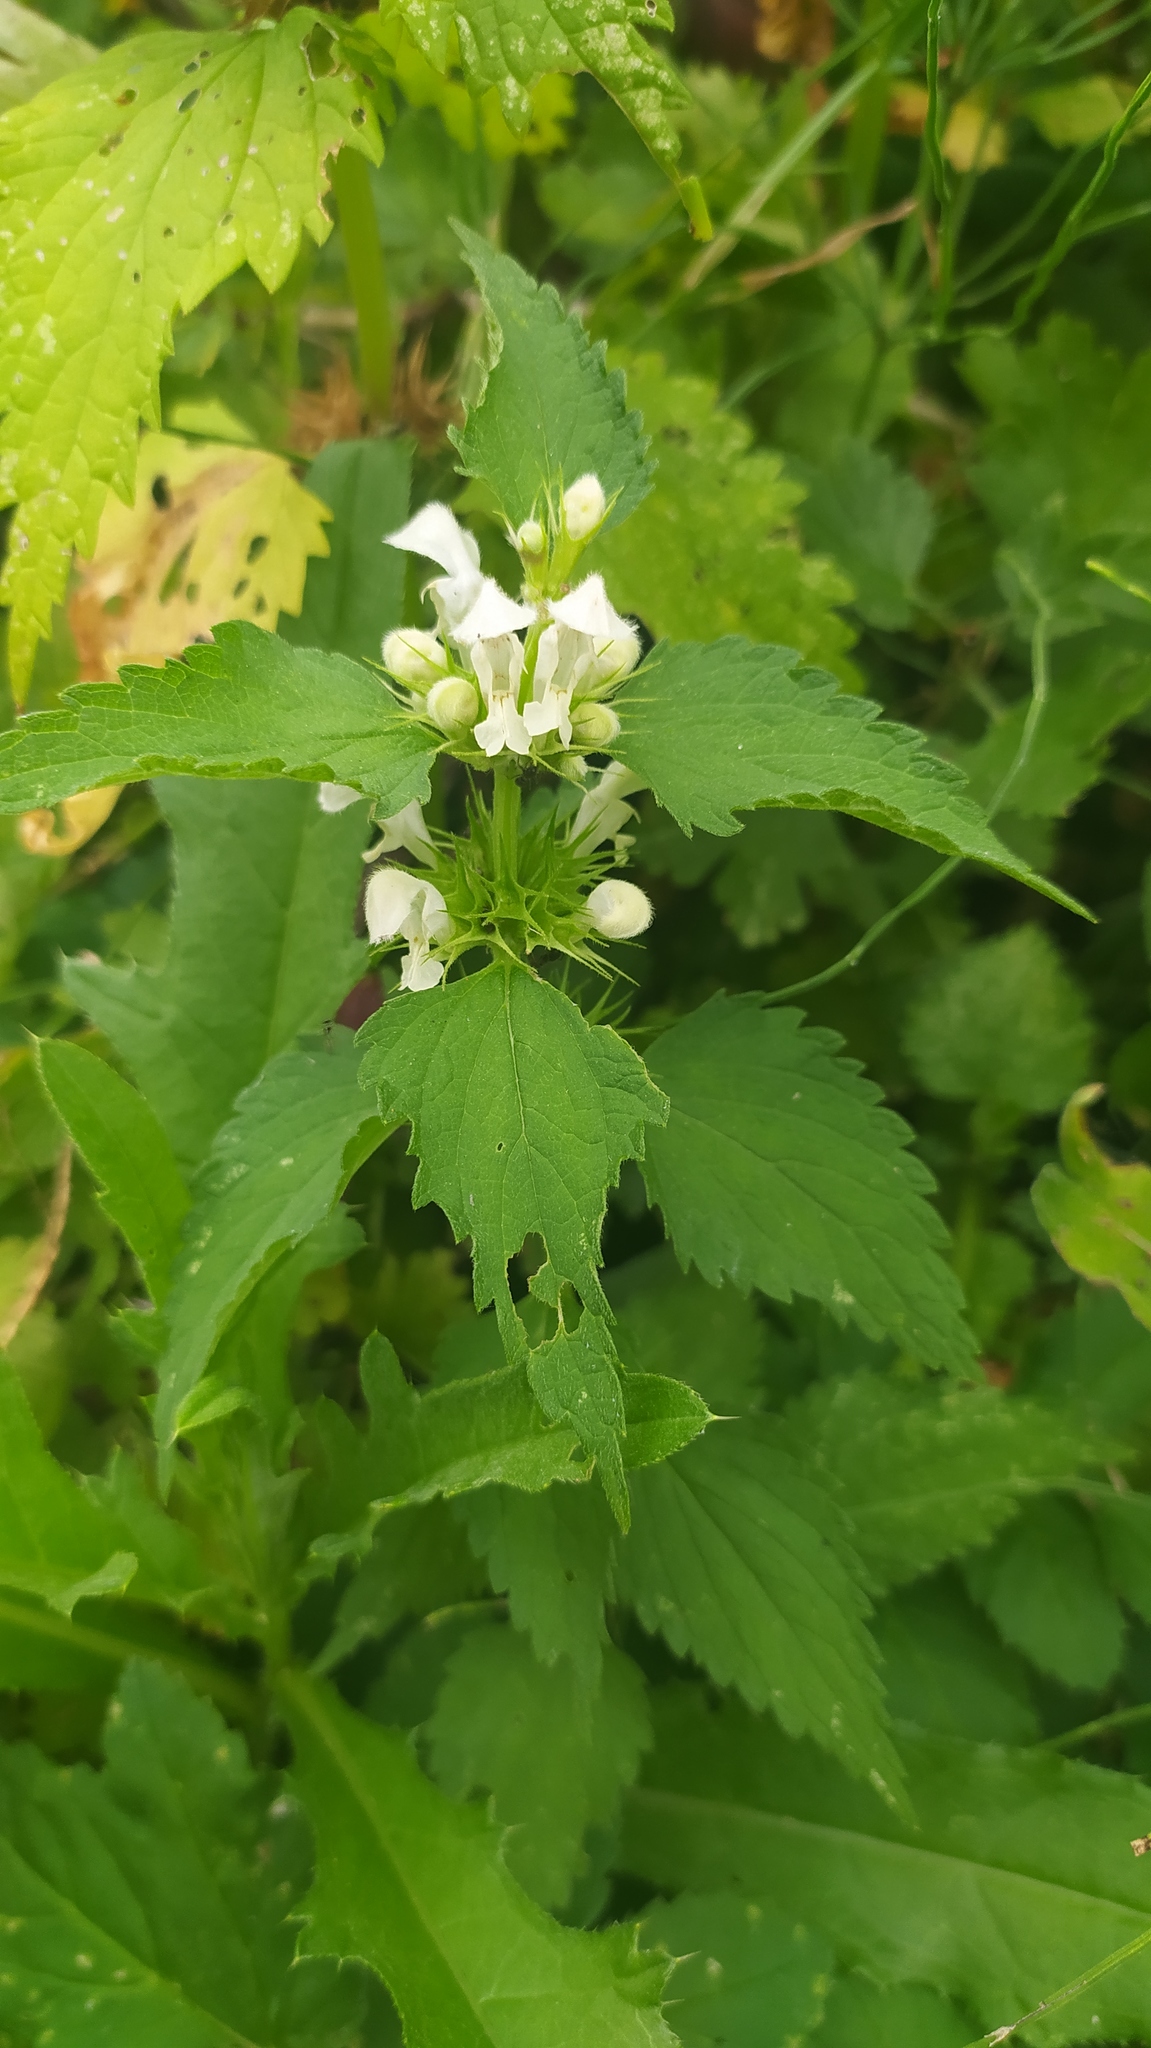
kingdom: Plantae
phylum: Tracheophyta
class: Magnoliopsida
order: Lamiales
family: Lamiaceae
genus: Lamium
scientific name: Lamium album
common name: White dead-nettle
